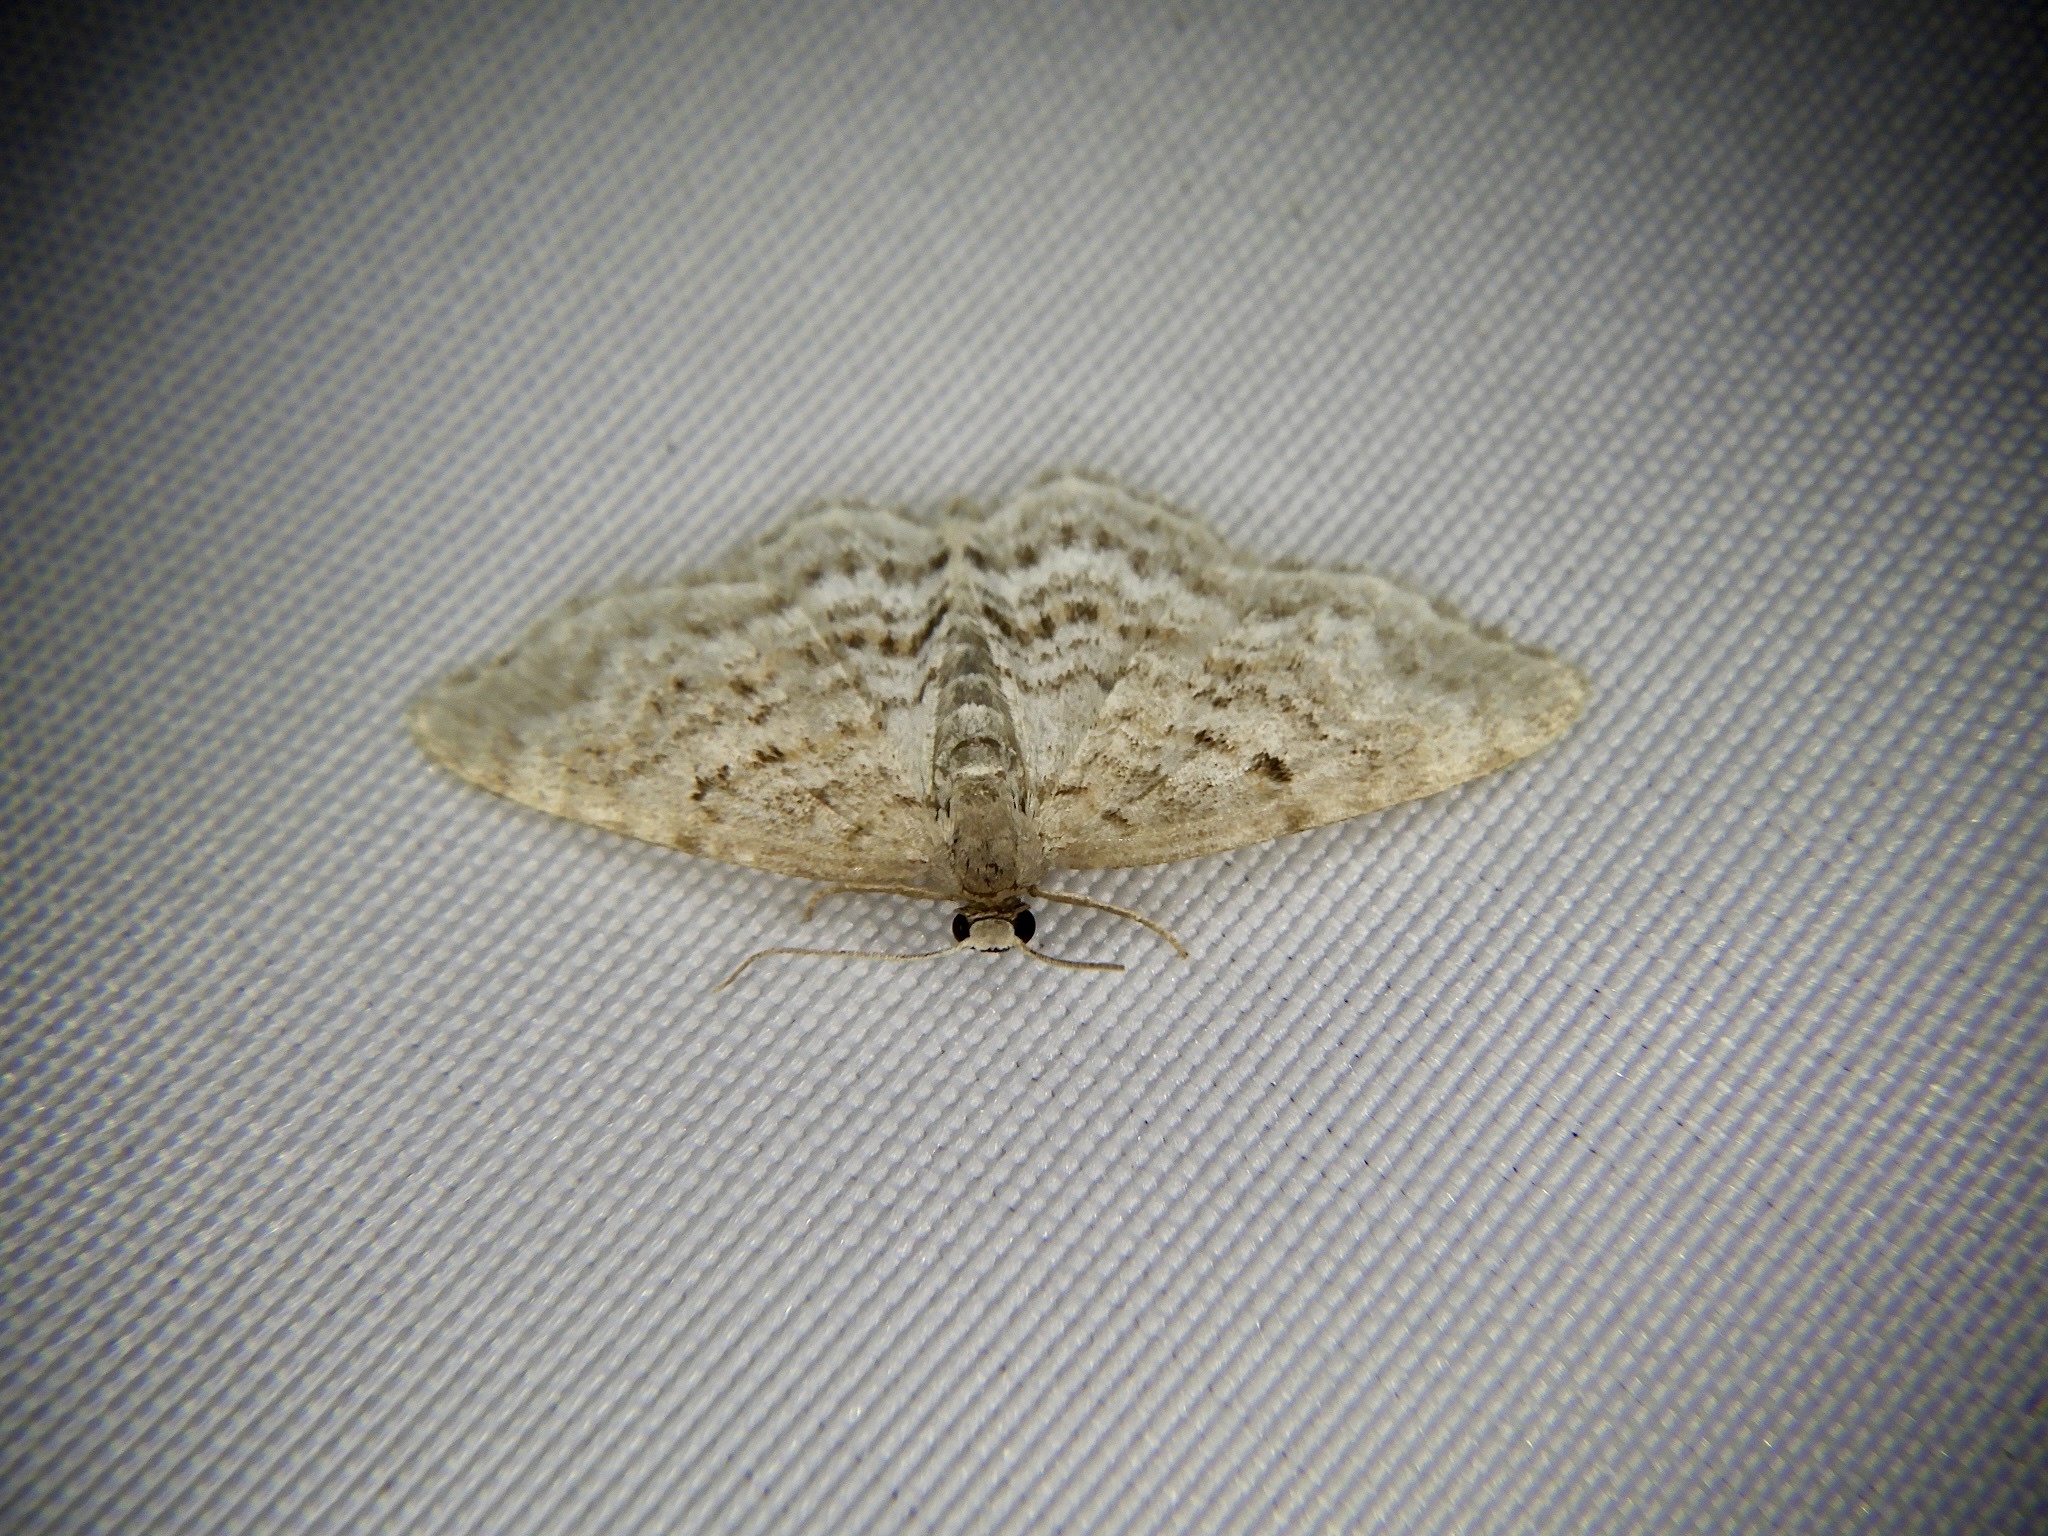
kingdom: Animalia
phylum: Arthropoda
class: Insecta
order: Lepidoptera
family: Geometridae
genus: Hydrelia
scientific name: Hydrelia nisaria
